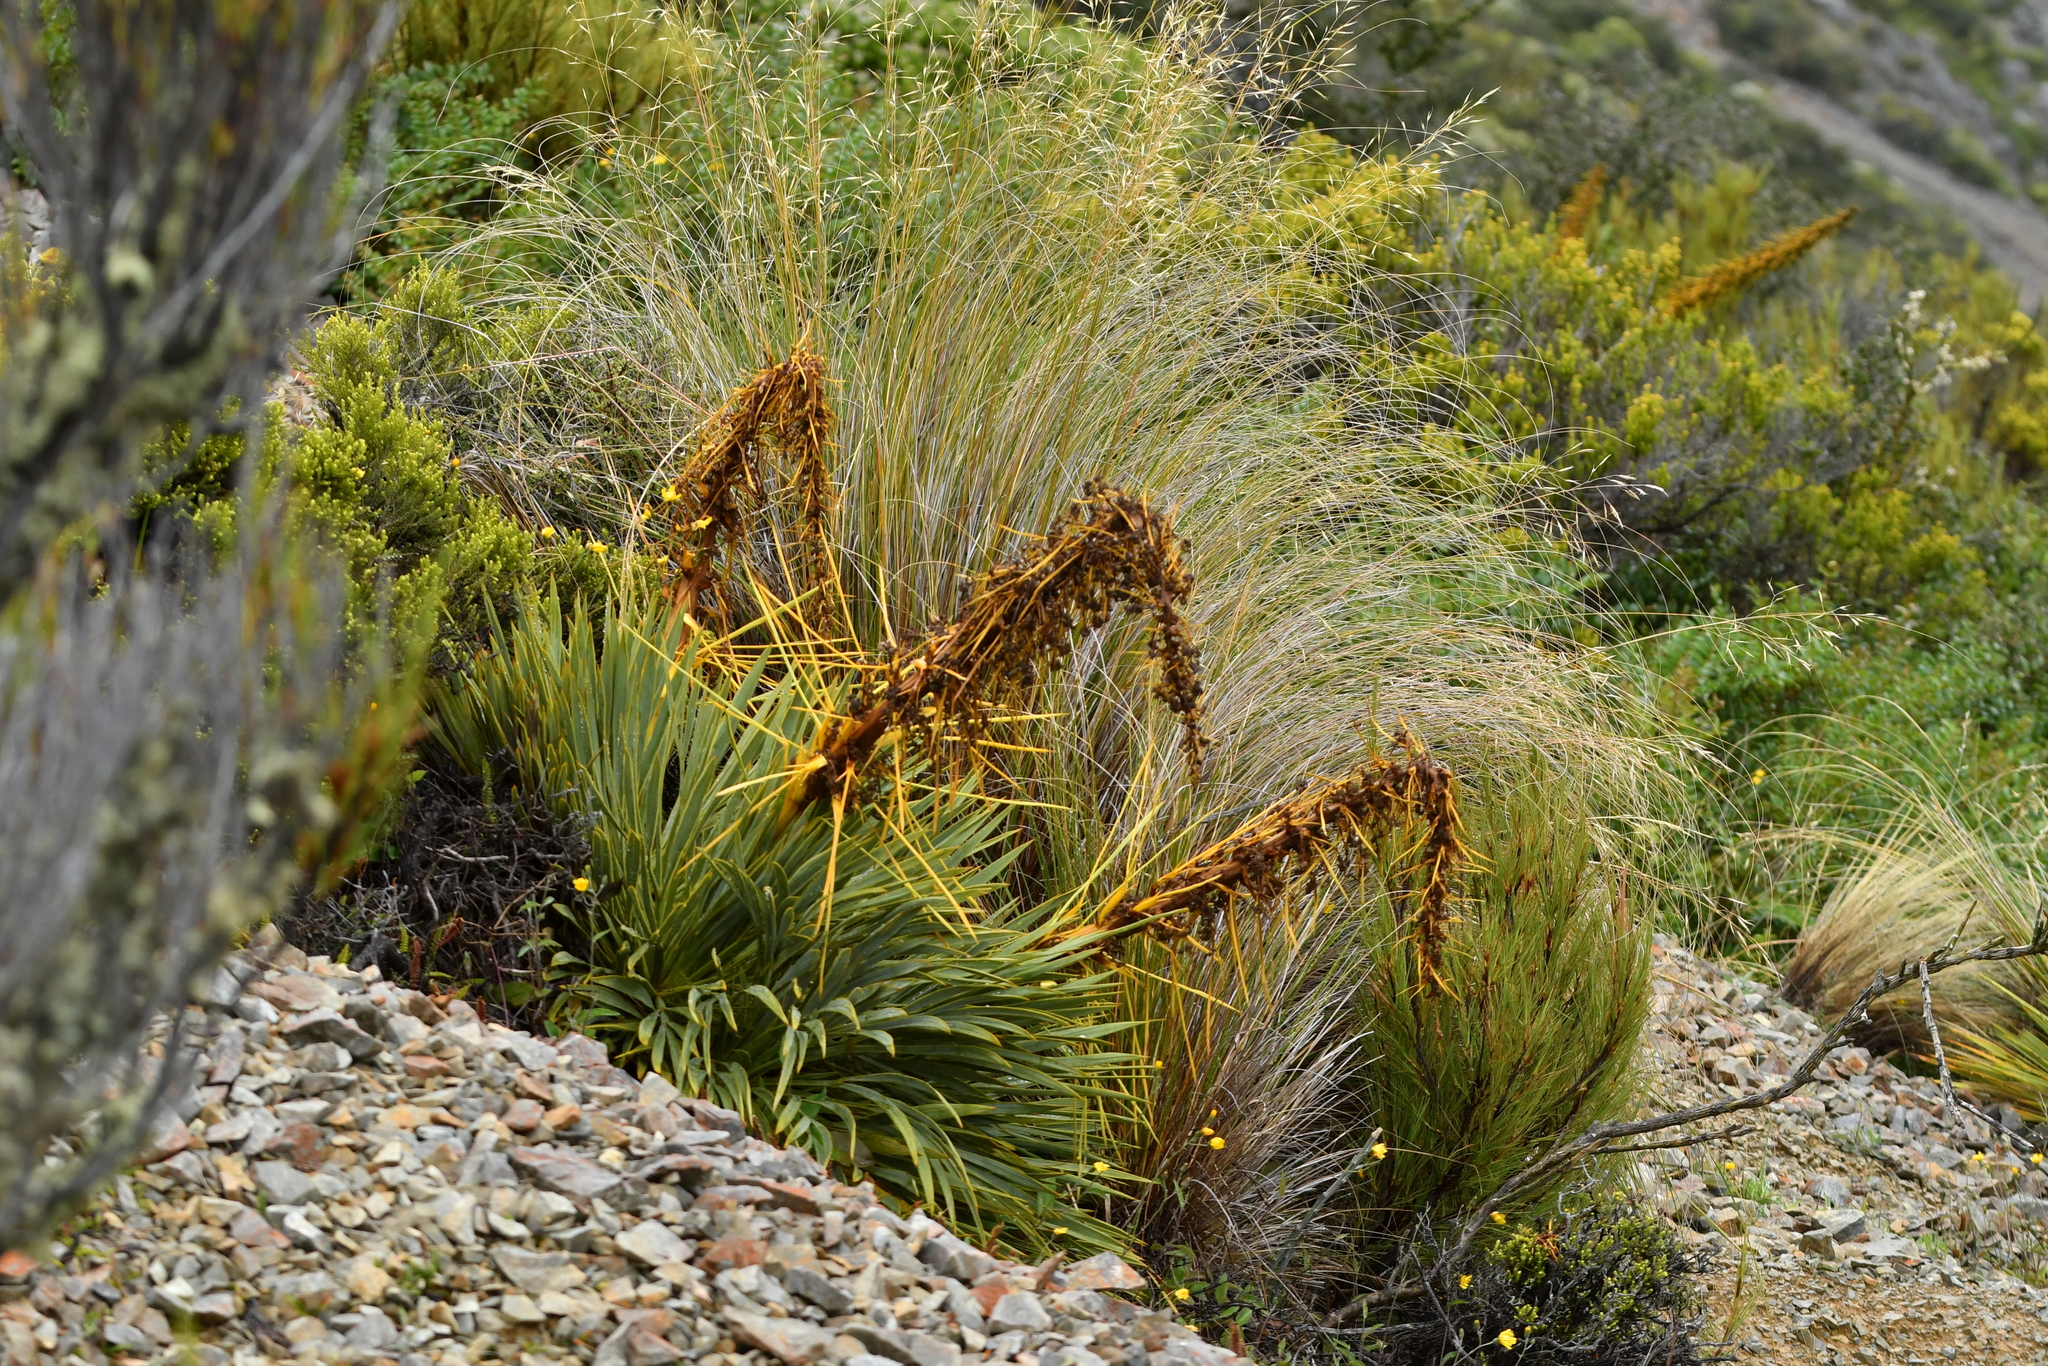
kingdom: Plantae
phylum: Tracheophyta
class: Magnoliopsida
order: Apiales
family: Apiaceae
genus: Aciphylla
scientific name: Aciphylla aurea
